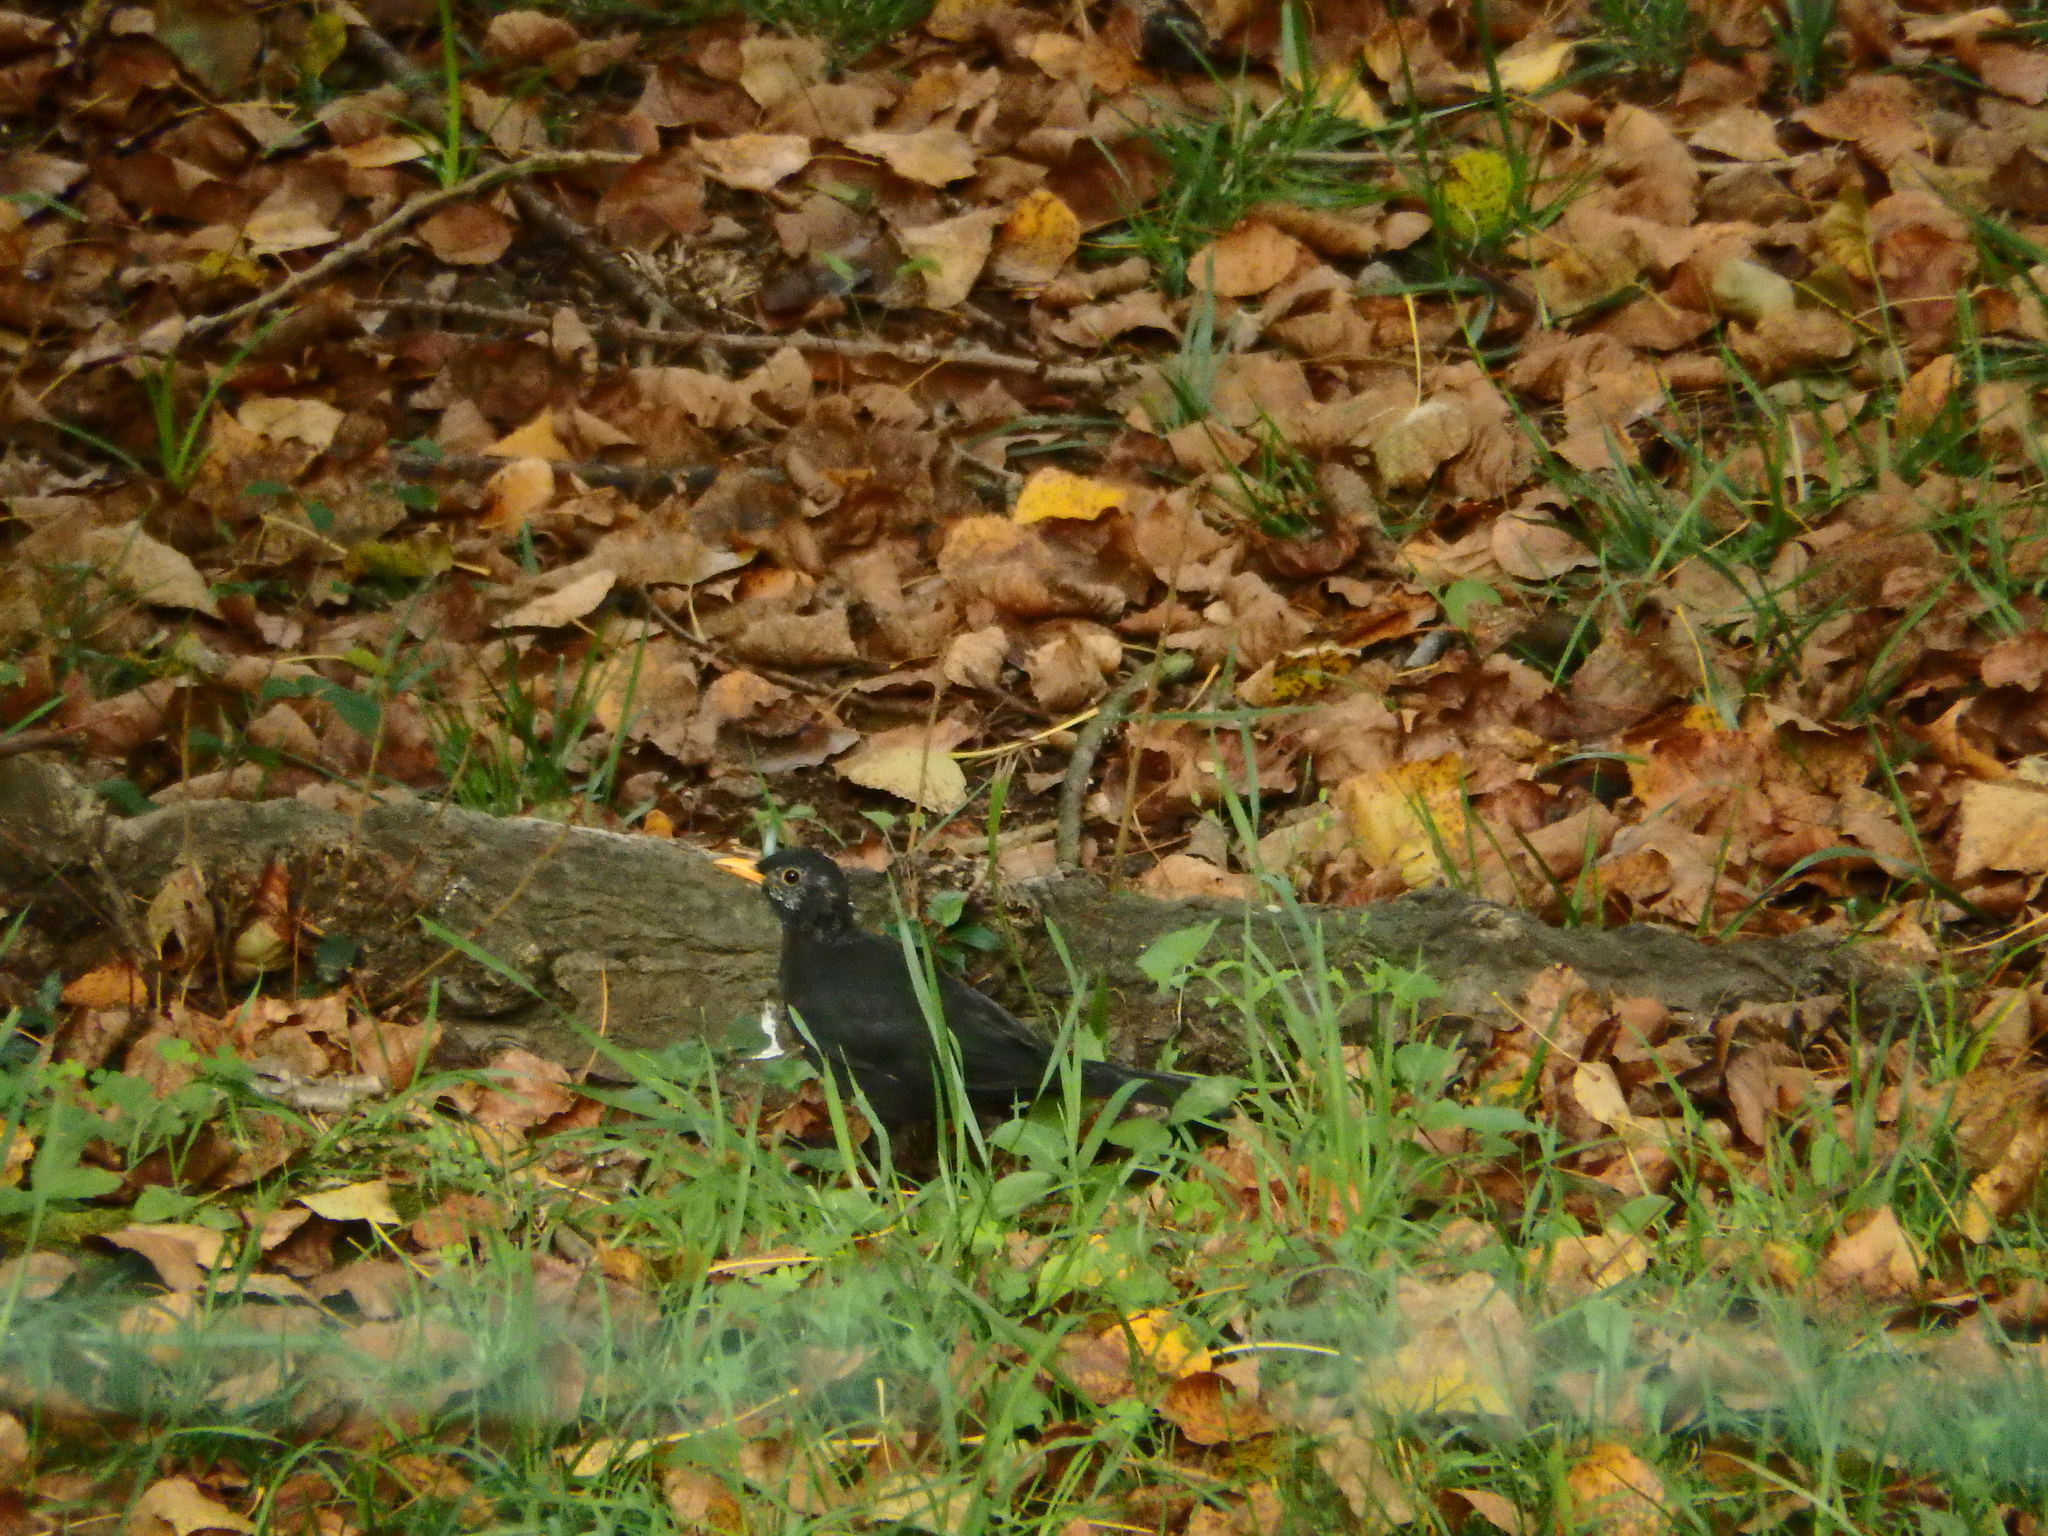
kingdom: Animalia
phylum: Chordata
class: Aves
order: Passeriformes
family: Turdidae
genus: Turdus
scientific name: Turdus merula
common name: Common blackbird
